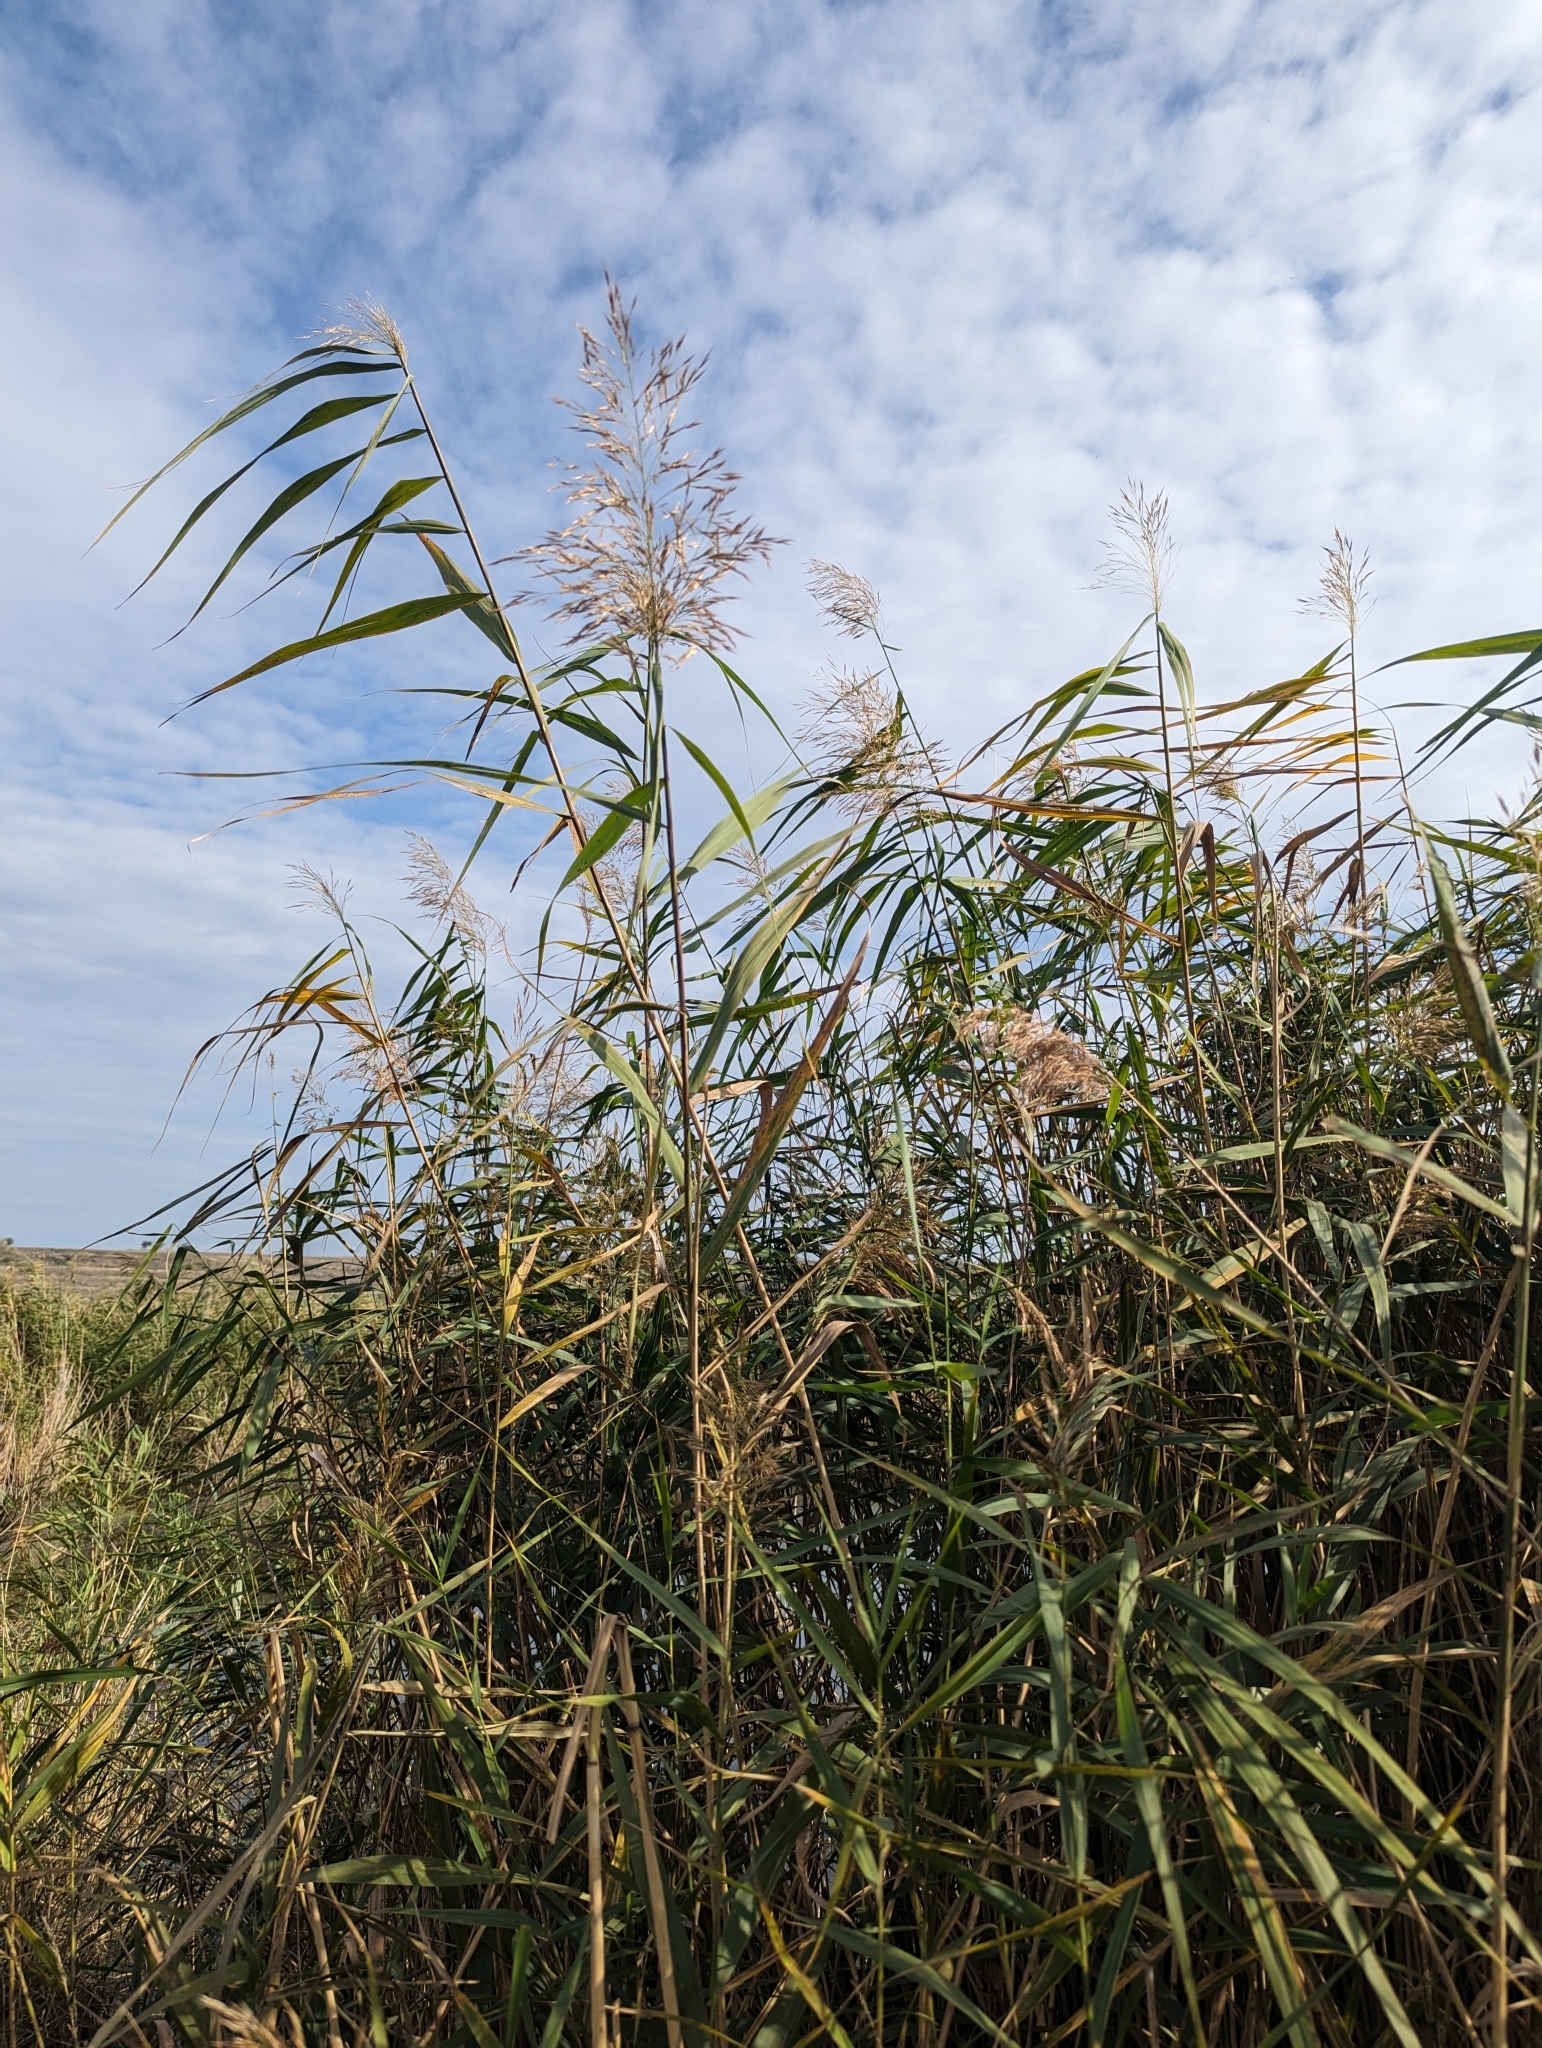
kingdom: Plantae
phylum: Tracheophyta
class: Liliopsida
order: Poales
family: Poaceae
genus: Phragmites
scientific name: Phragmites australis
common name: Common reed
